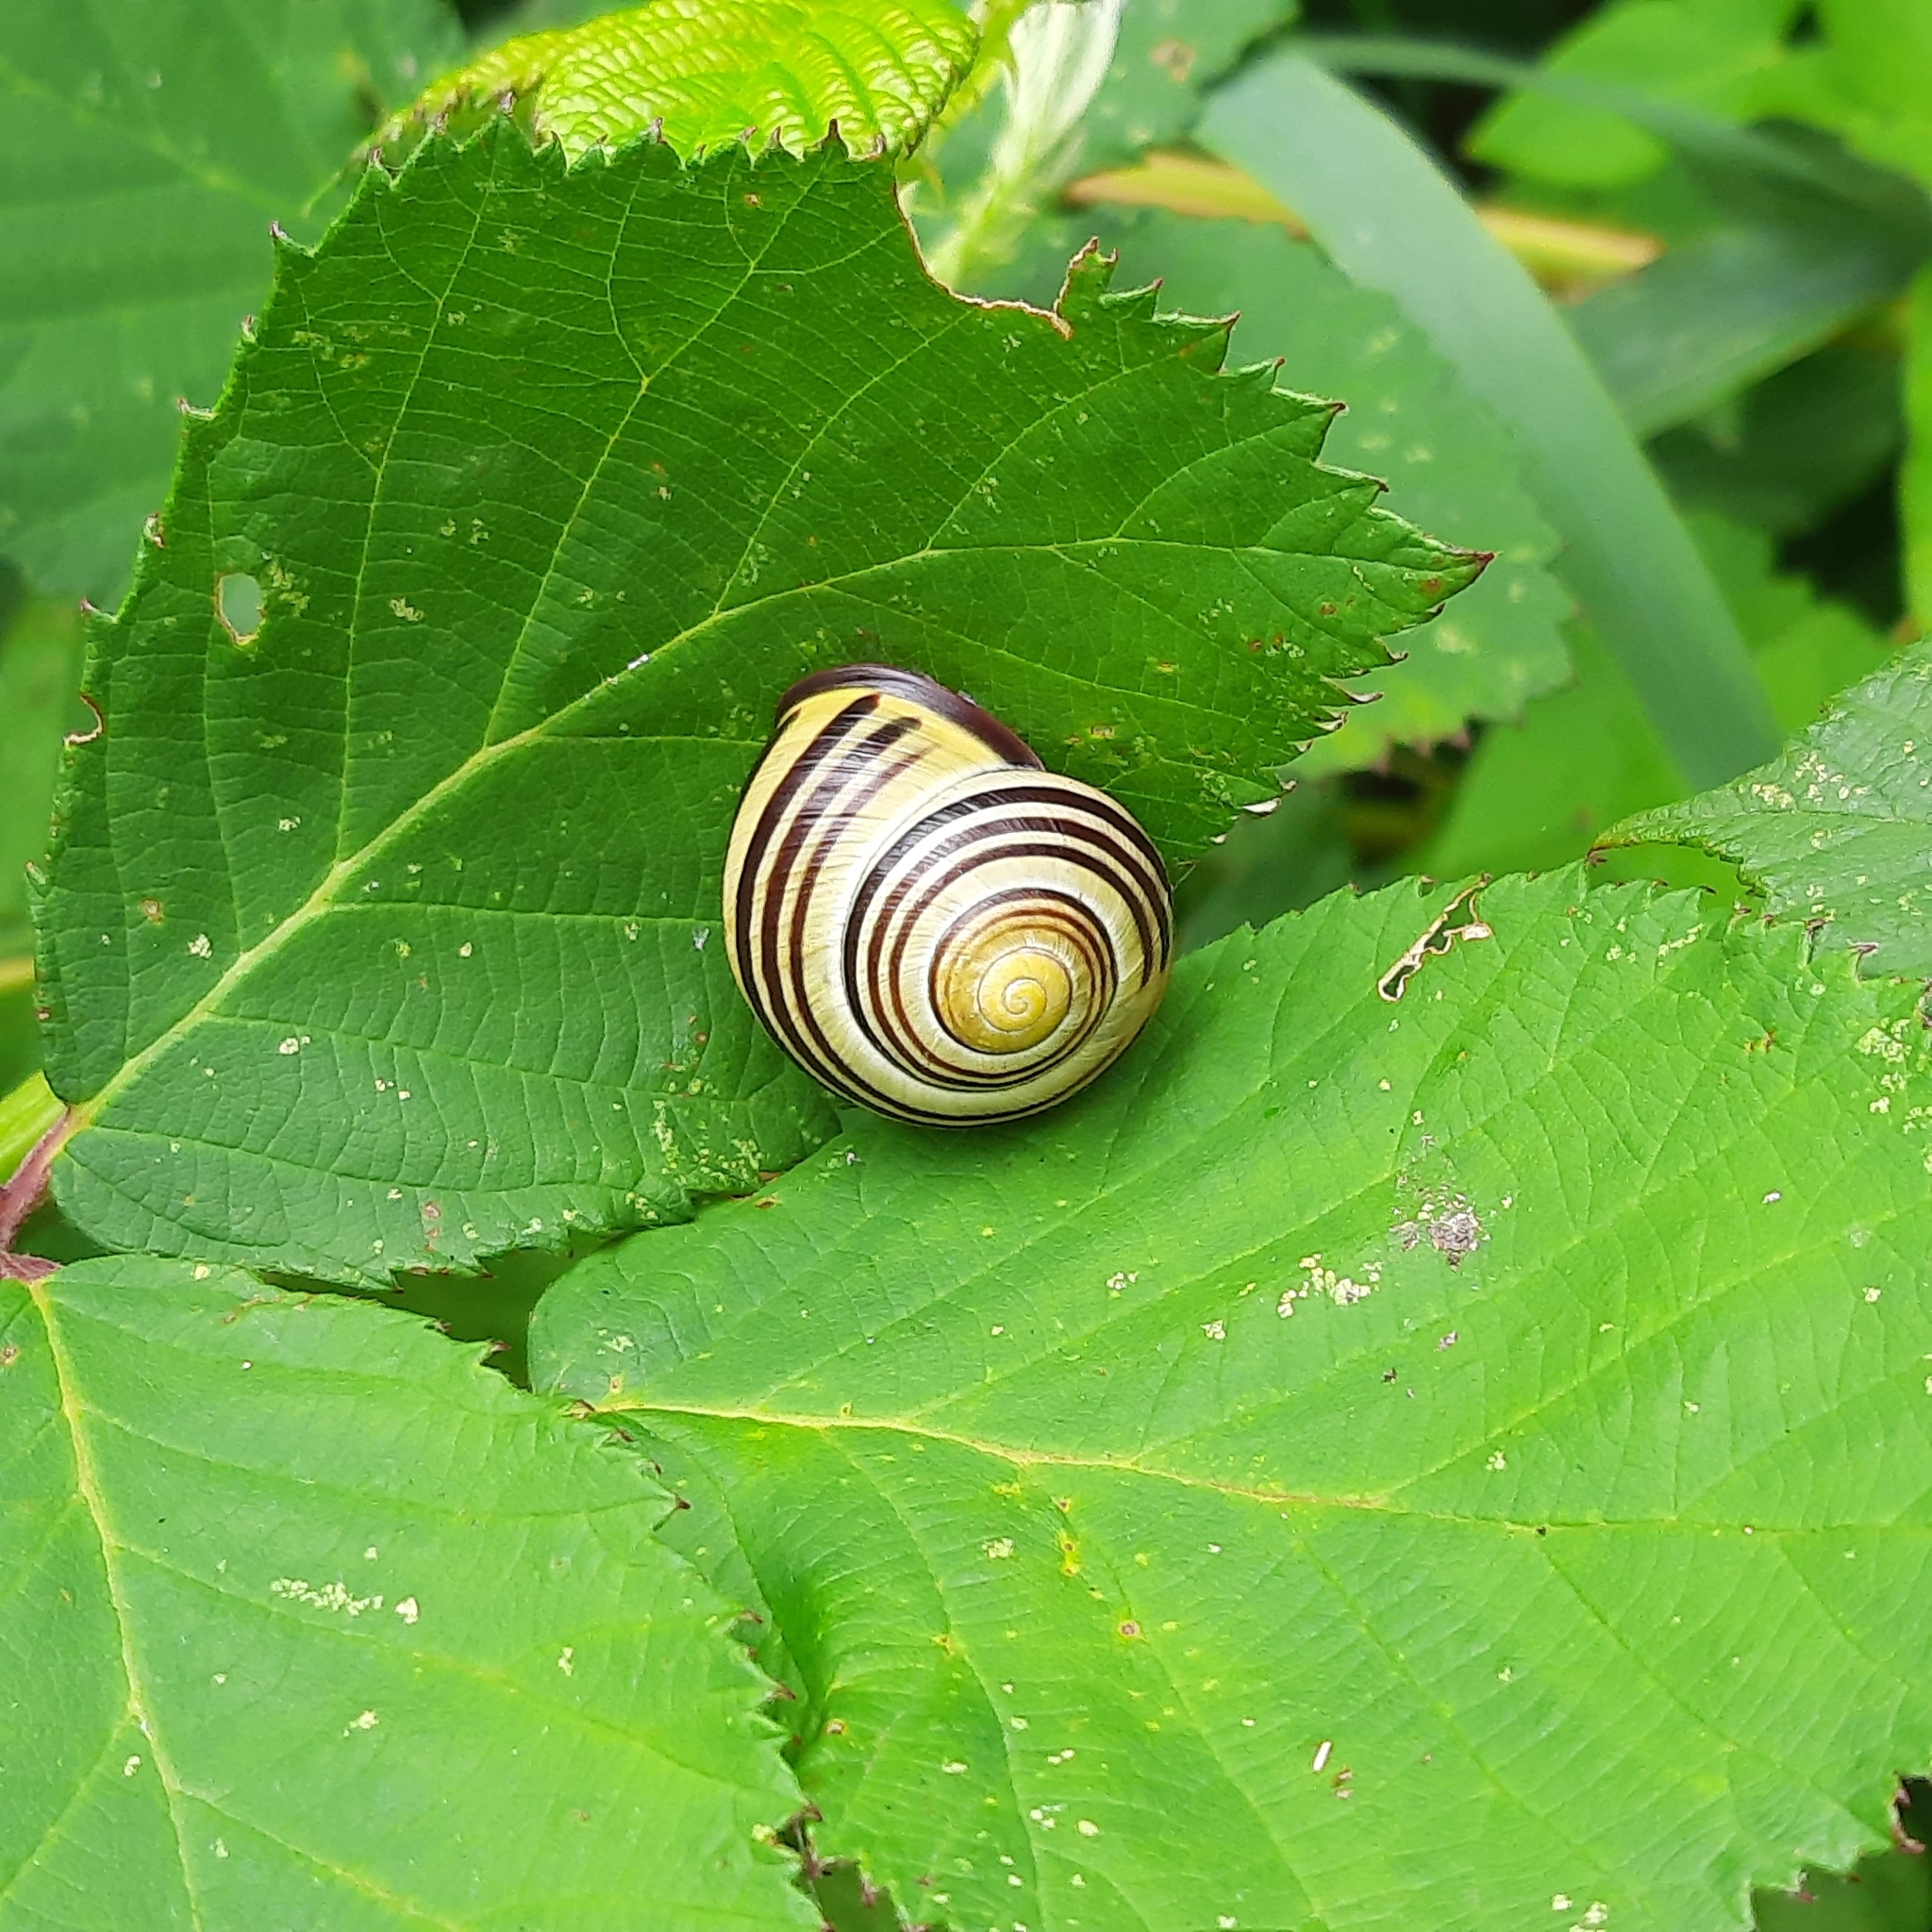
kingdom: Animalia
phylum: Mollusca
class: Gastropoda
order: Stylommatophora
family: Helicidae
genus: Cepaea
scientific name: Cepaea nemoralis
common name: Grovesnail
